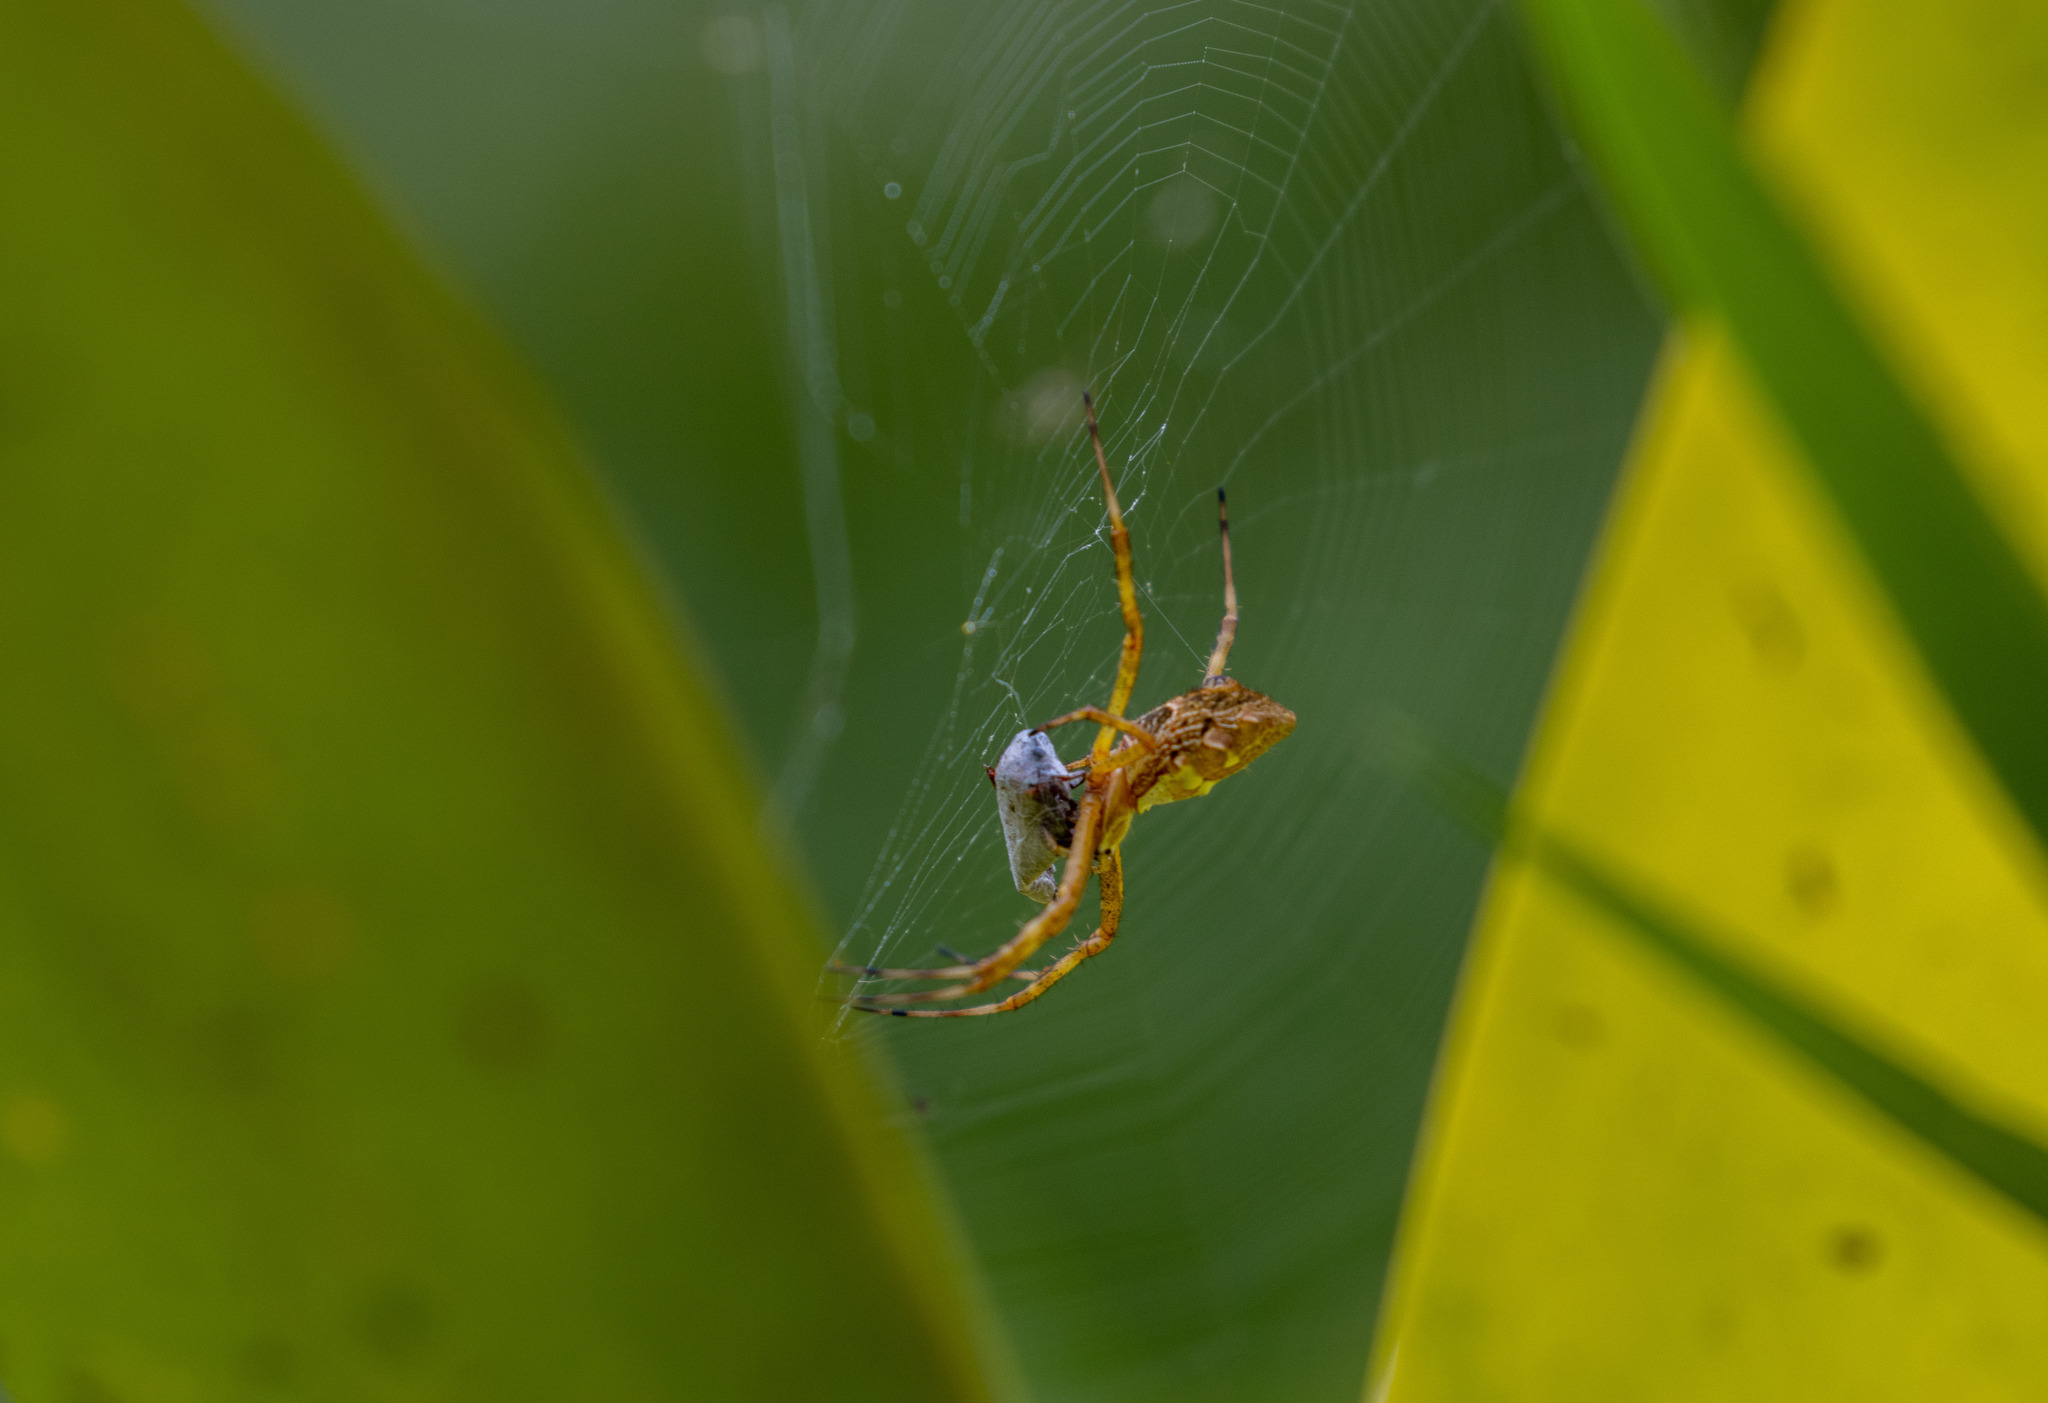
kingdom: Animalia
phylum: Arthropoda
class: Arachnida
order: Araneae
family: Araneidae
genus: Argiope
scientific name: Argiope argentata
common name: Orb weavers
